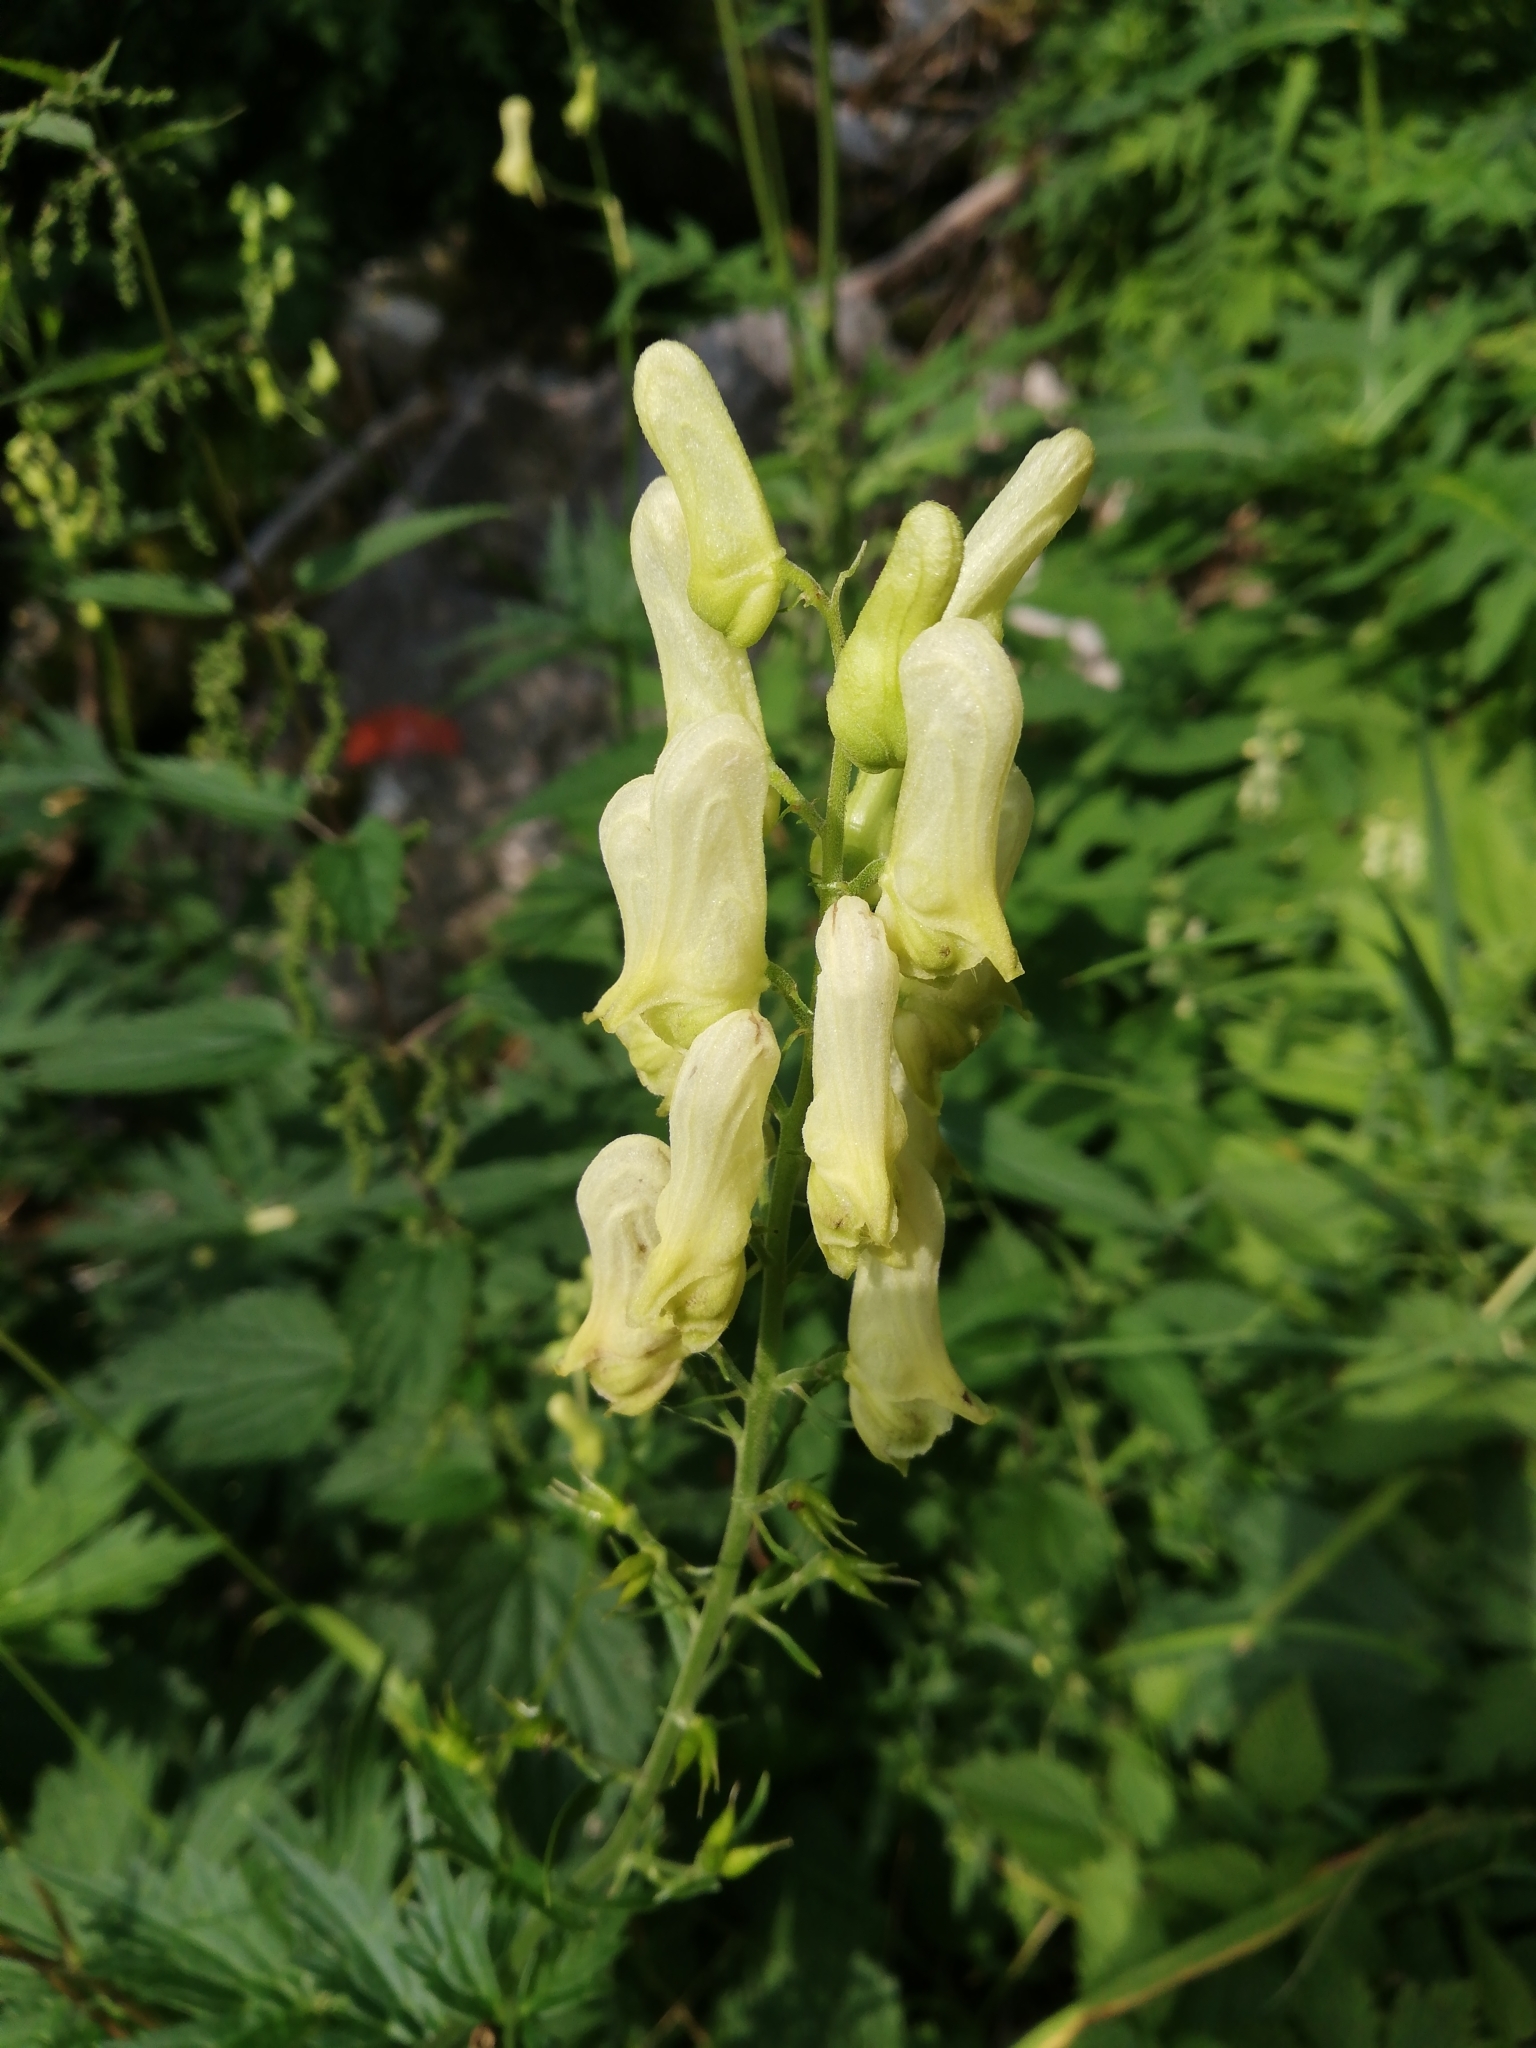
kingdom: Plantae
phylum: Tracheophyta
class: Magnoliopsida
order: Ranunculales
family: Ranunculaceae
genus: Aconitum
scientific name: Aconitum lycoctonum
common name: Wolf's-bane
